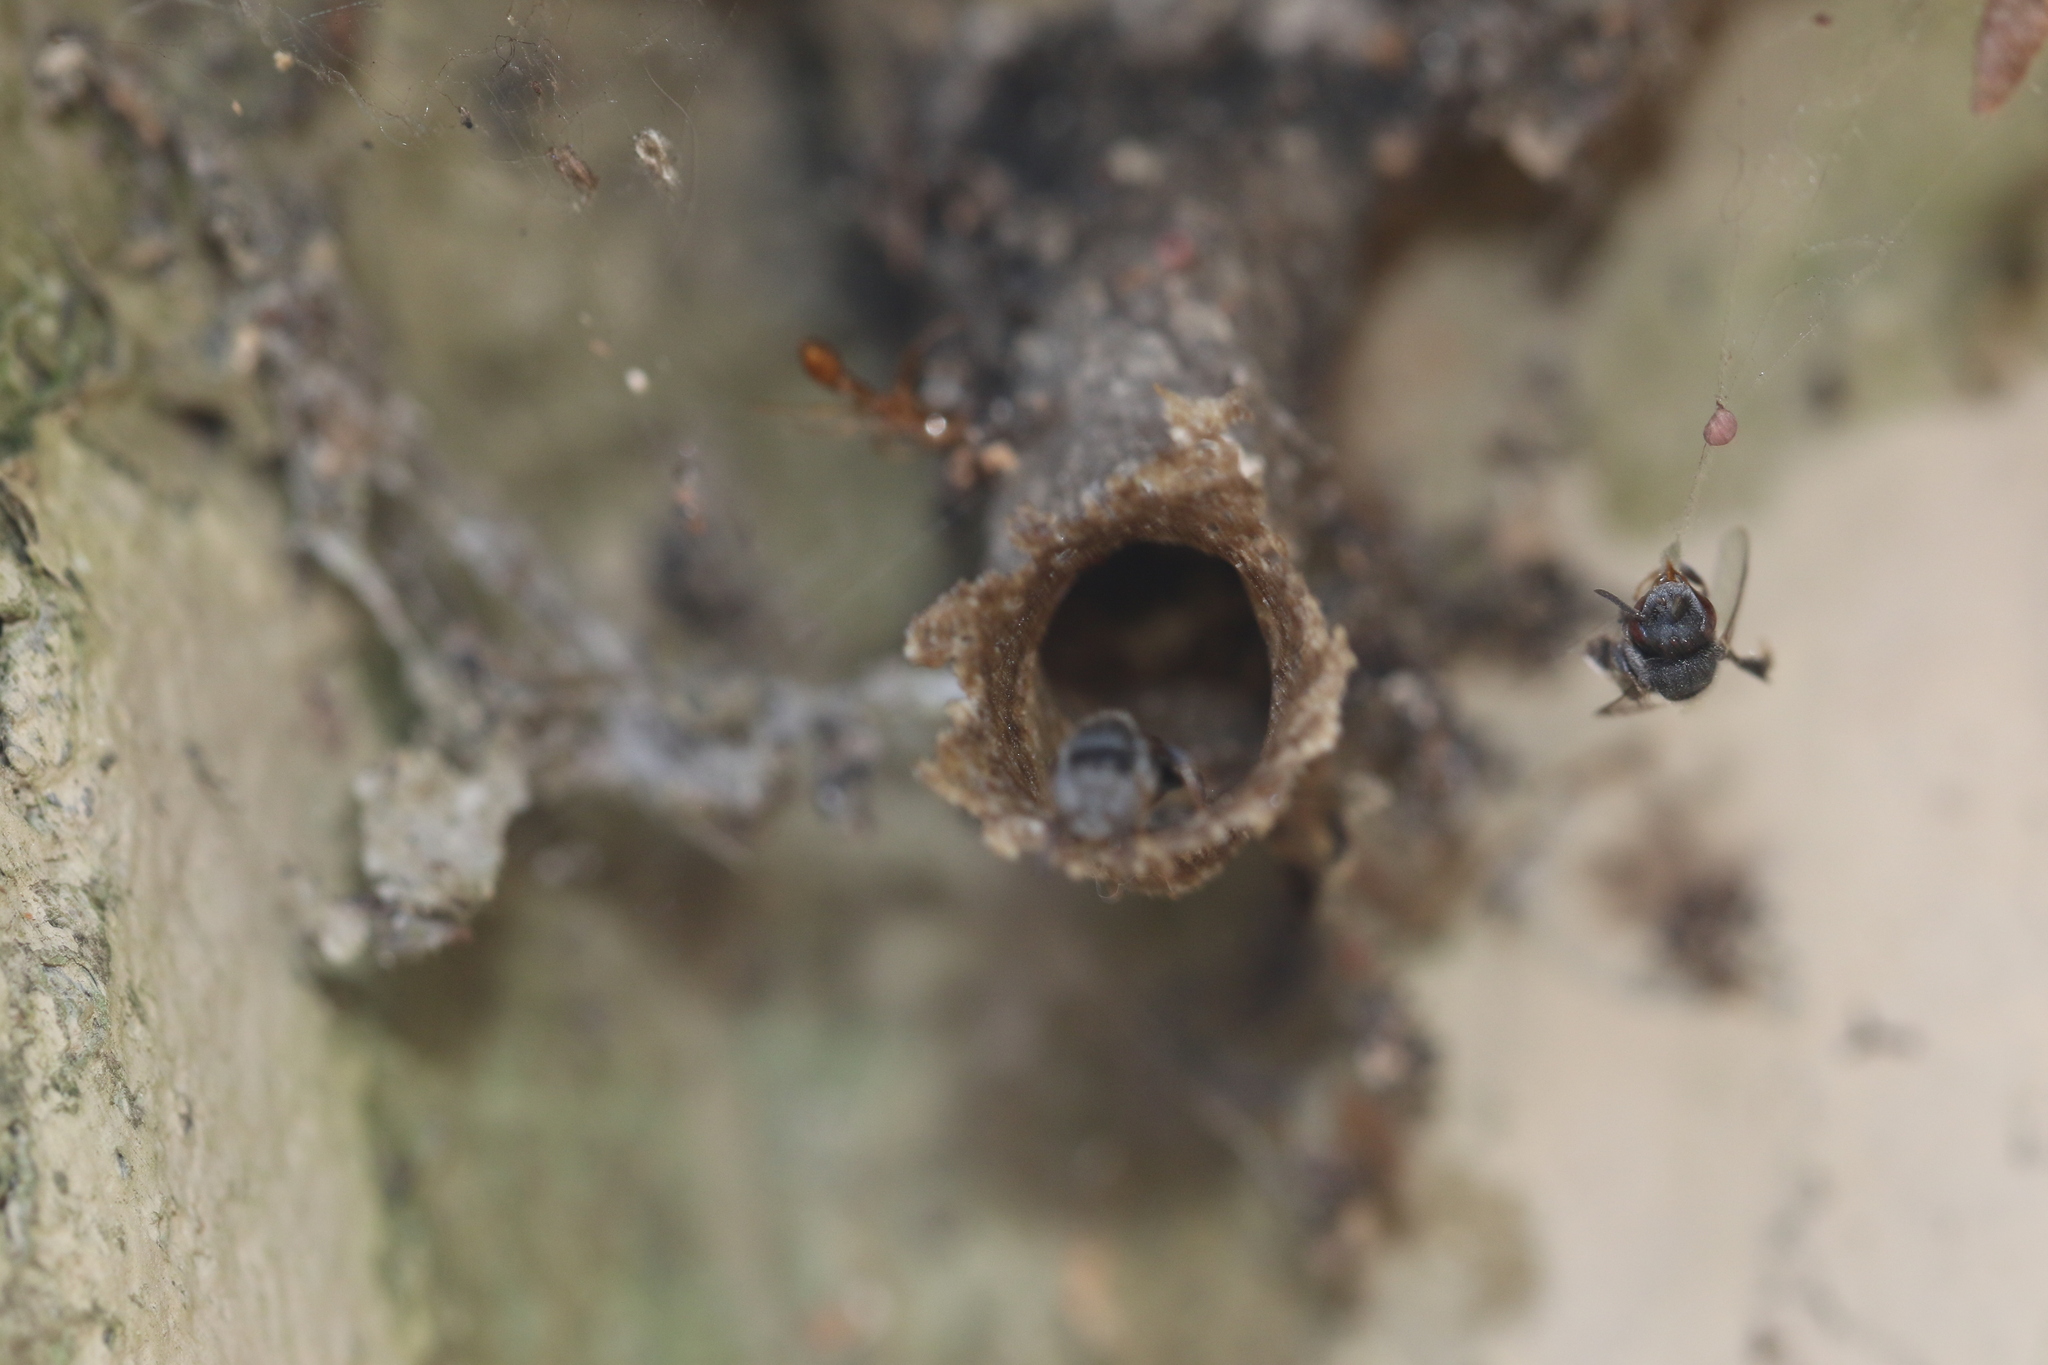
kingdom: Animalia
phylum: Arthropoda
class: Insecta
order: Hymenoptera
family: Apidae
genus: Friesella
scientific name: Friesella schrottkyi
